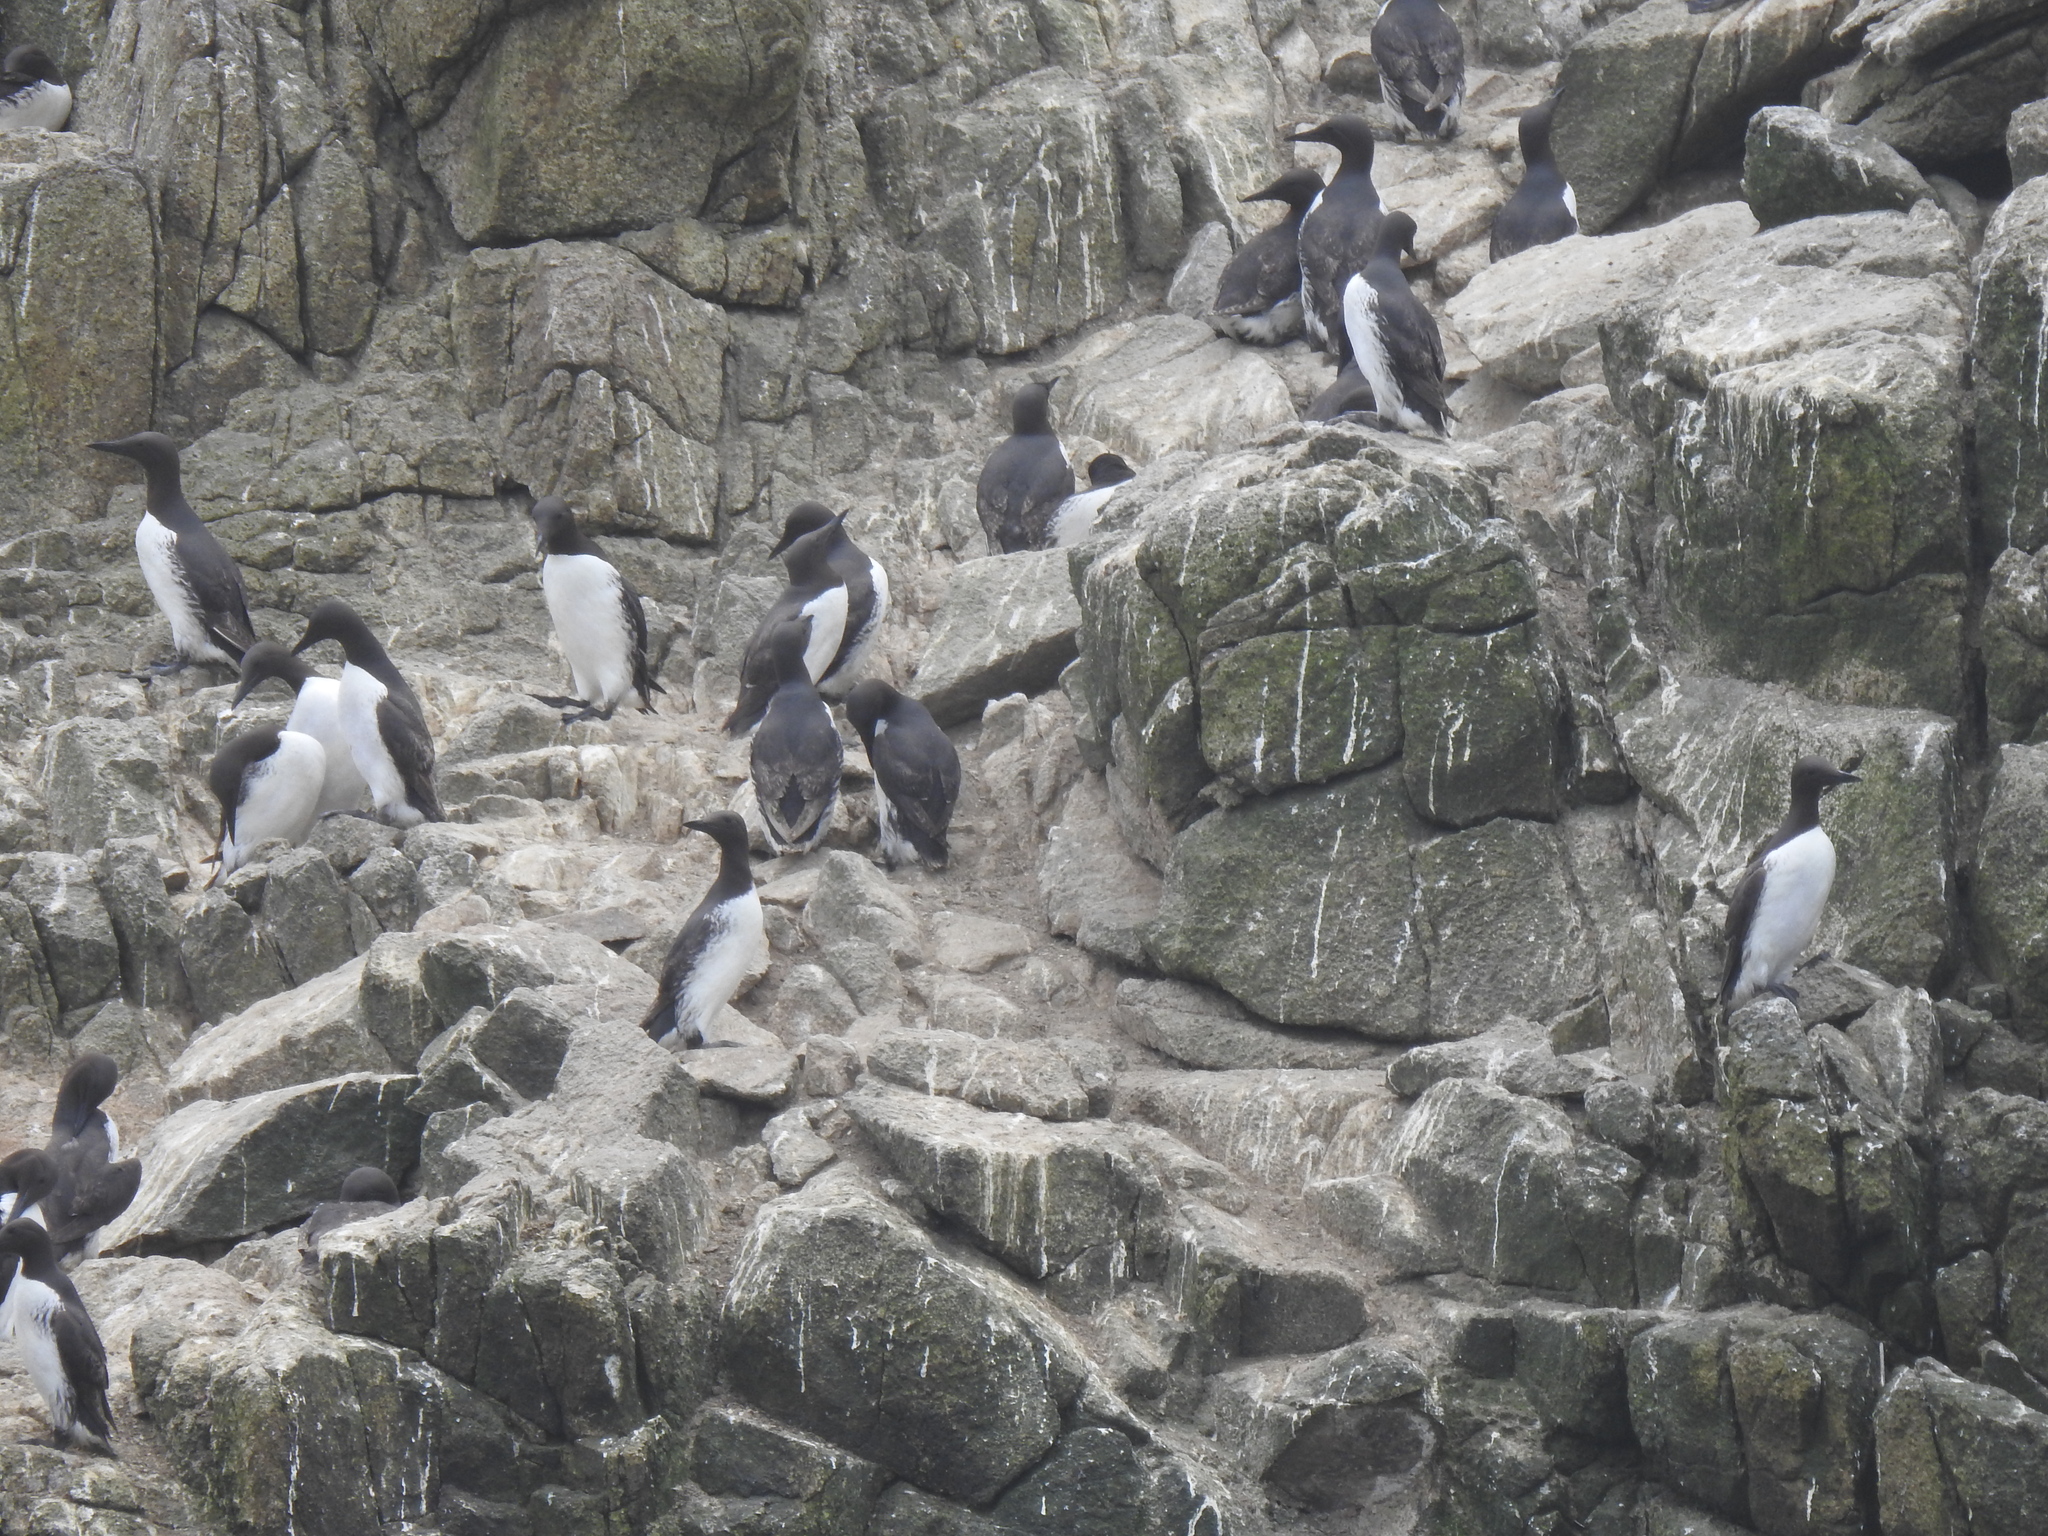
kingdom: Animalia
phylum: Chordata
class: Aves
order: Charadriiformes
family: Alcidae
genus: Uria
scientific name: Uria aalge
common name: Common murre
